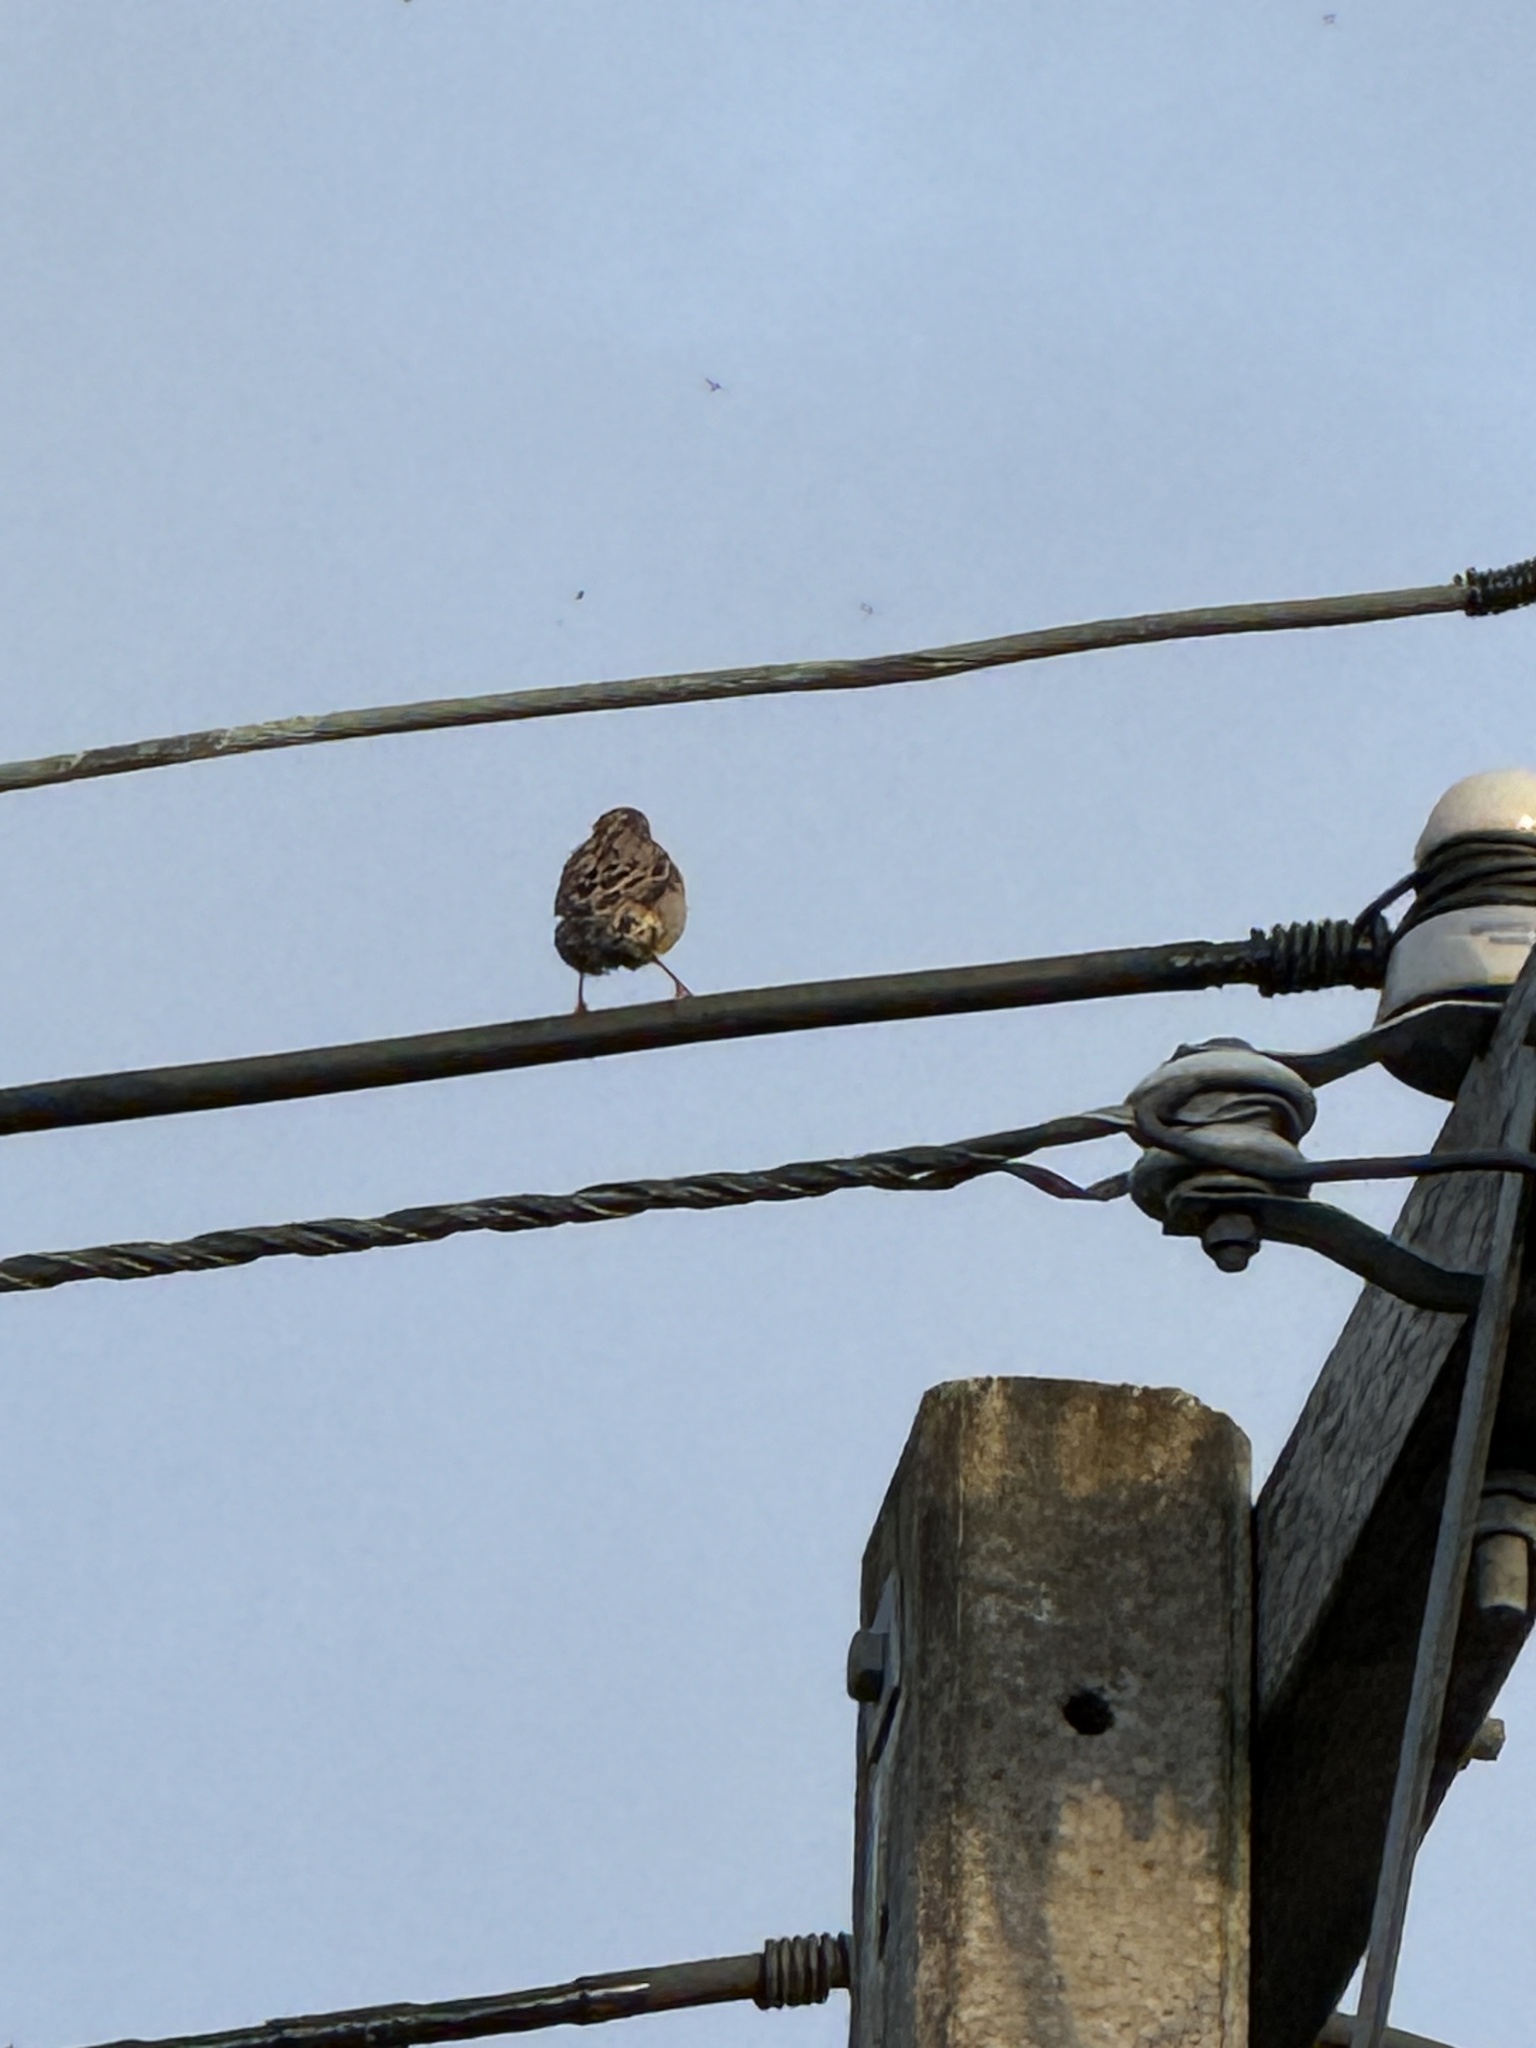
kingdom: Animalia
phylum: Chordata
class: Aves
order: Passeriformes
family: Passeridae
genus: Passer
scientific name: Passer domesticus
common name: House sparrow
